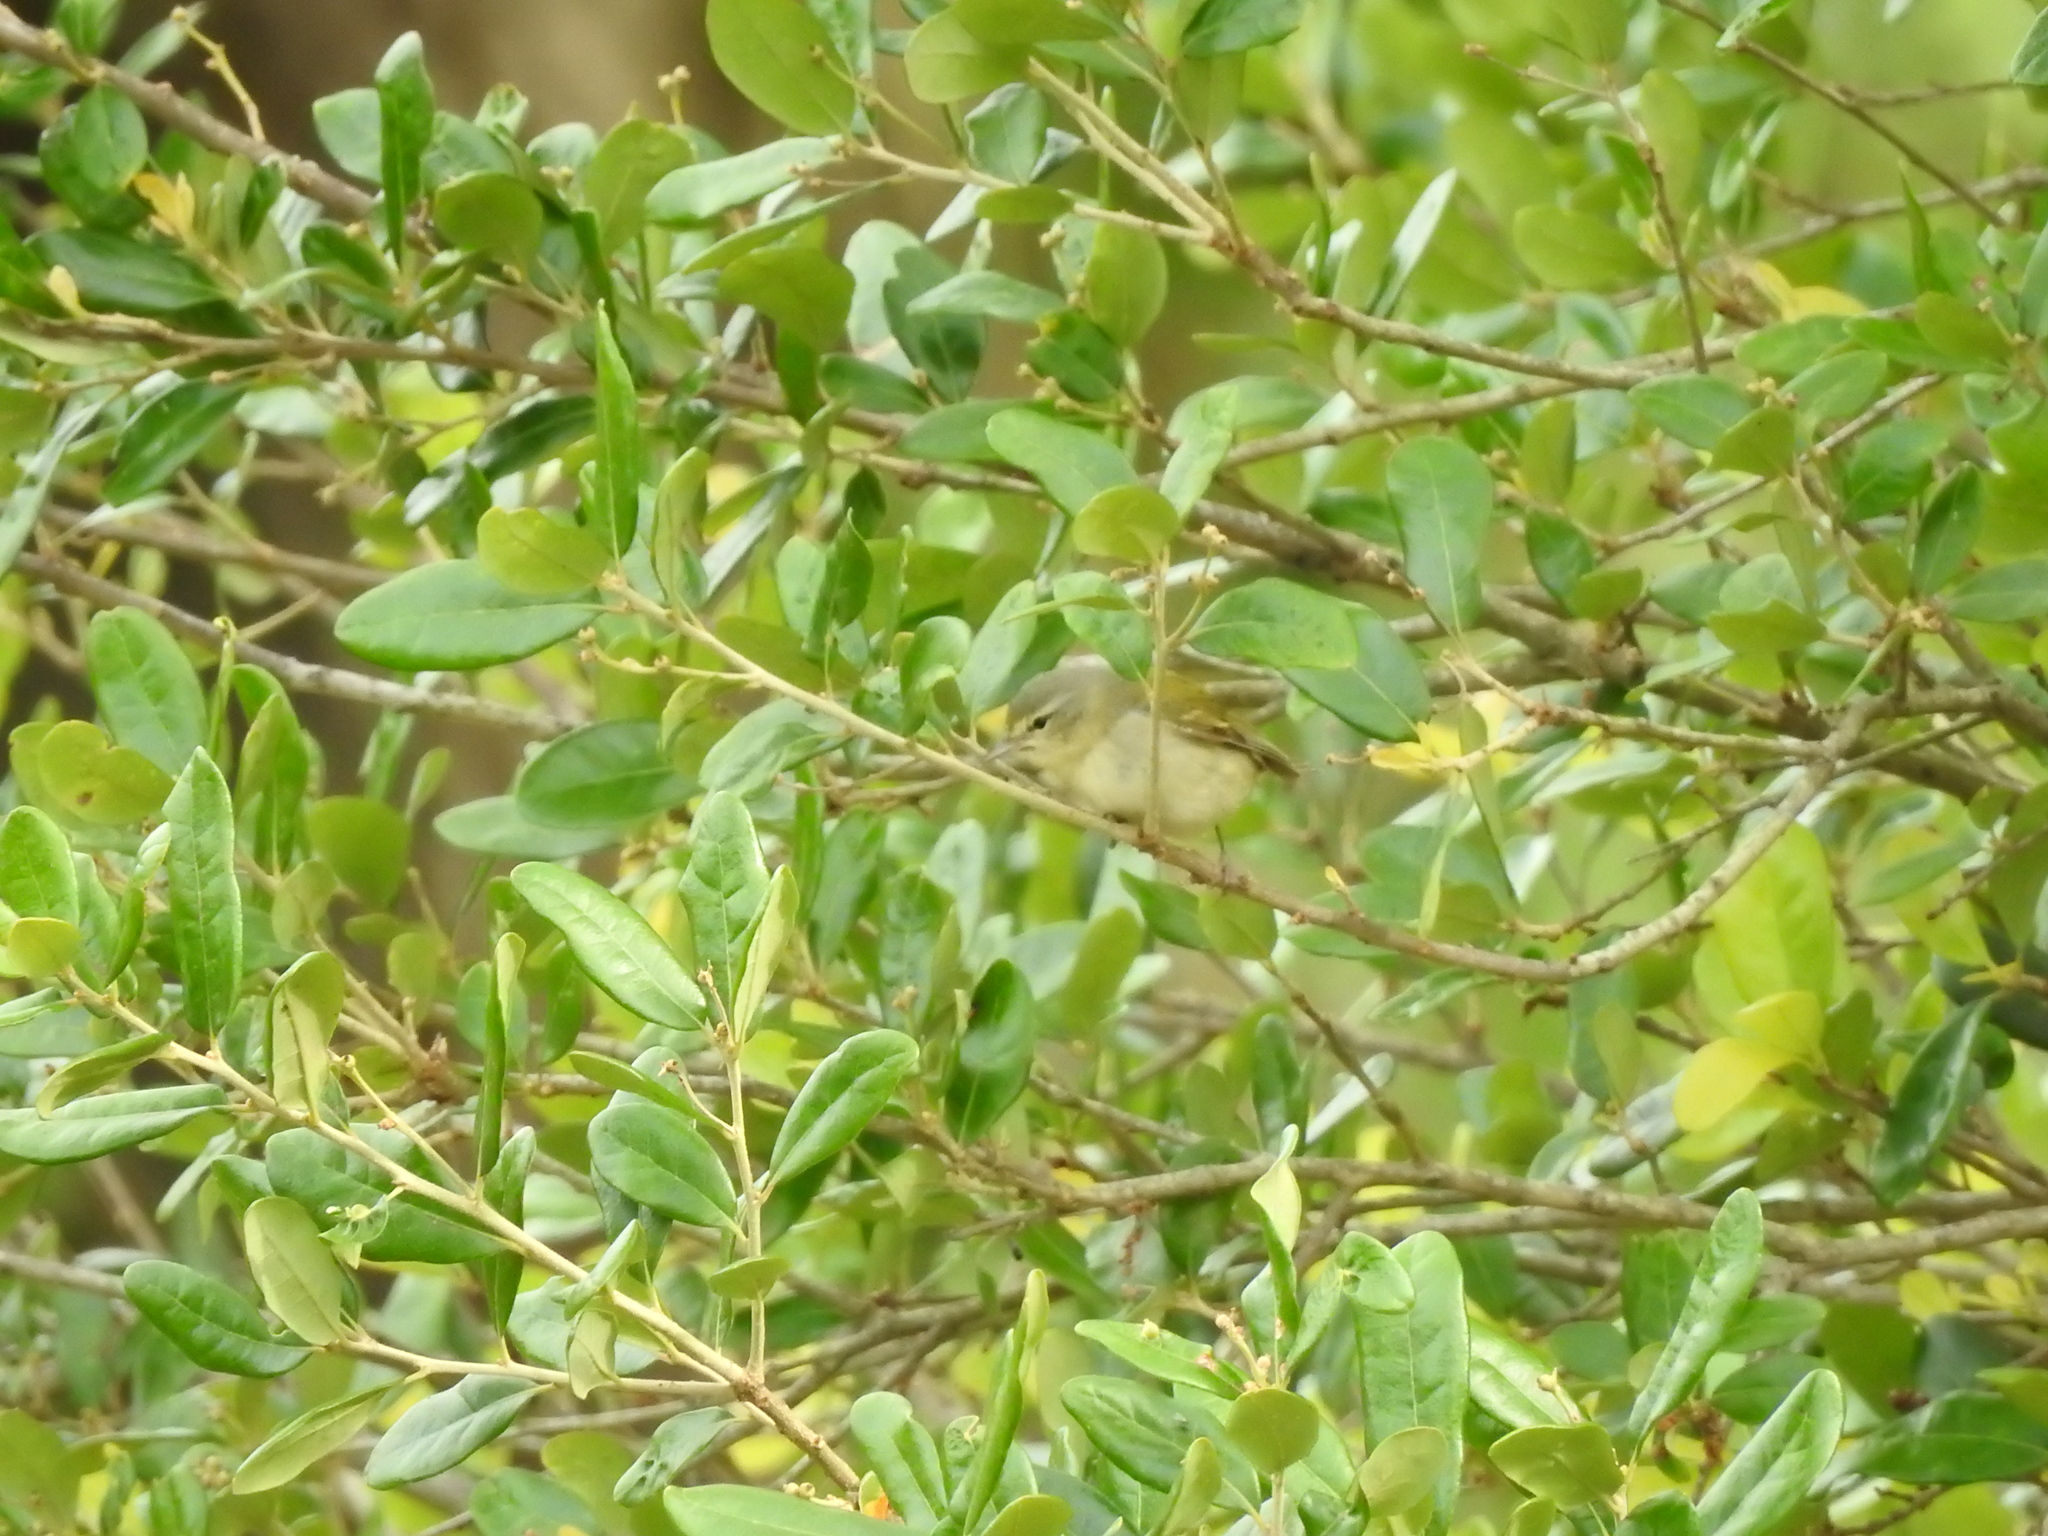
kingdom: Animalia
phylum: Chordata
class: Aves
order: Passeriformes
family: Parulidae
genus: Leiothlypis
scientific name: Leiothlypis peregrina
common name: Tennessee warbler
